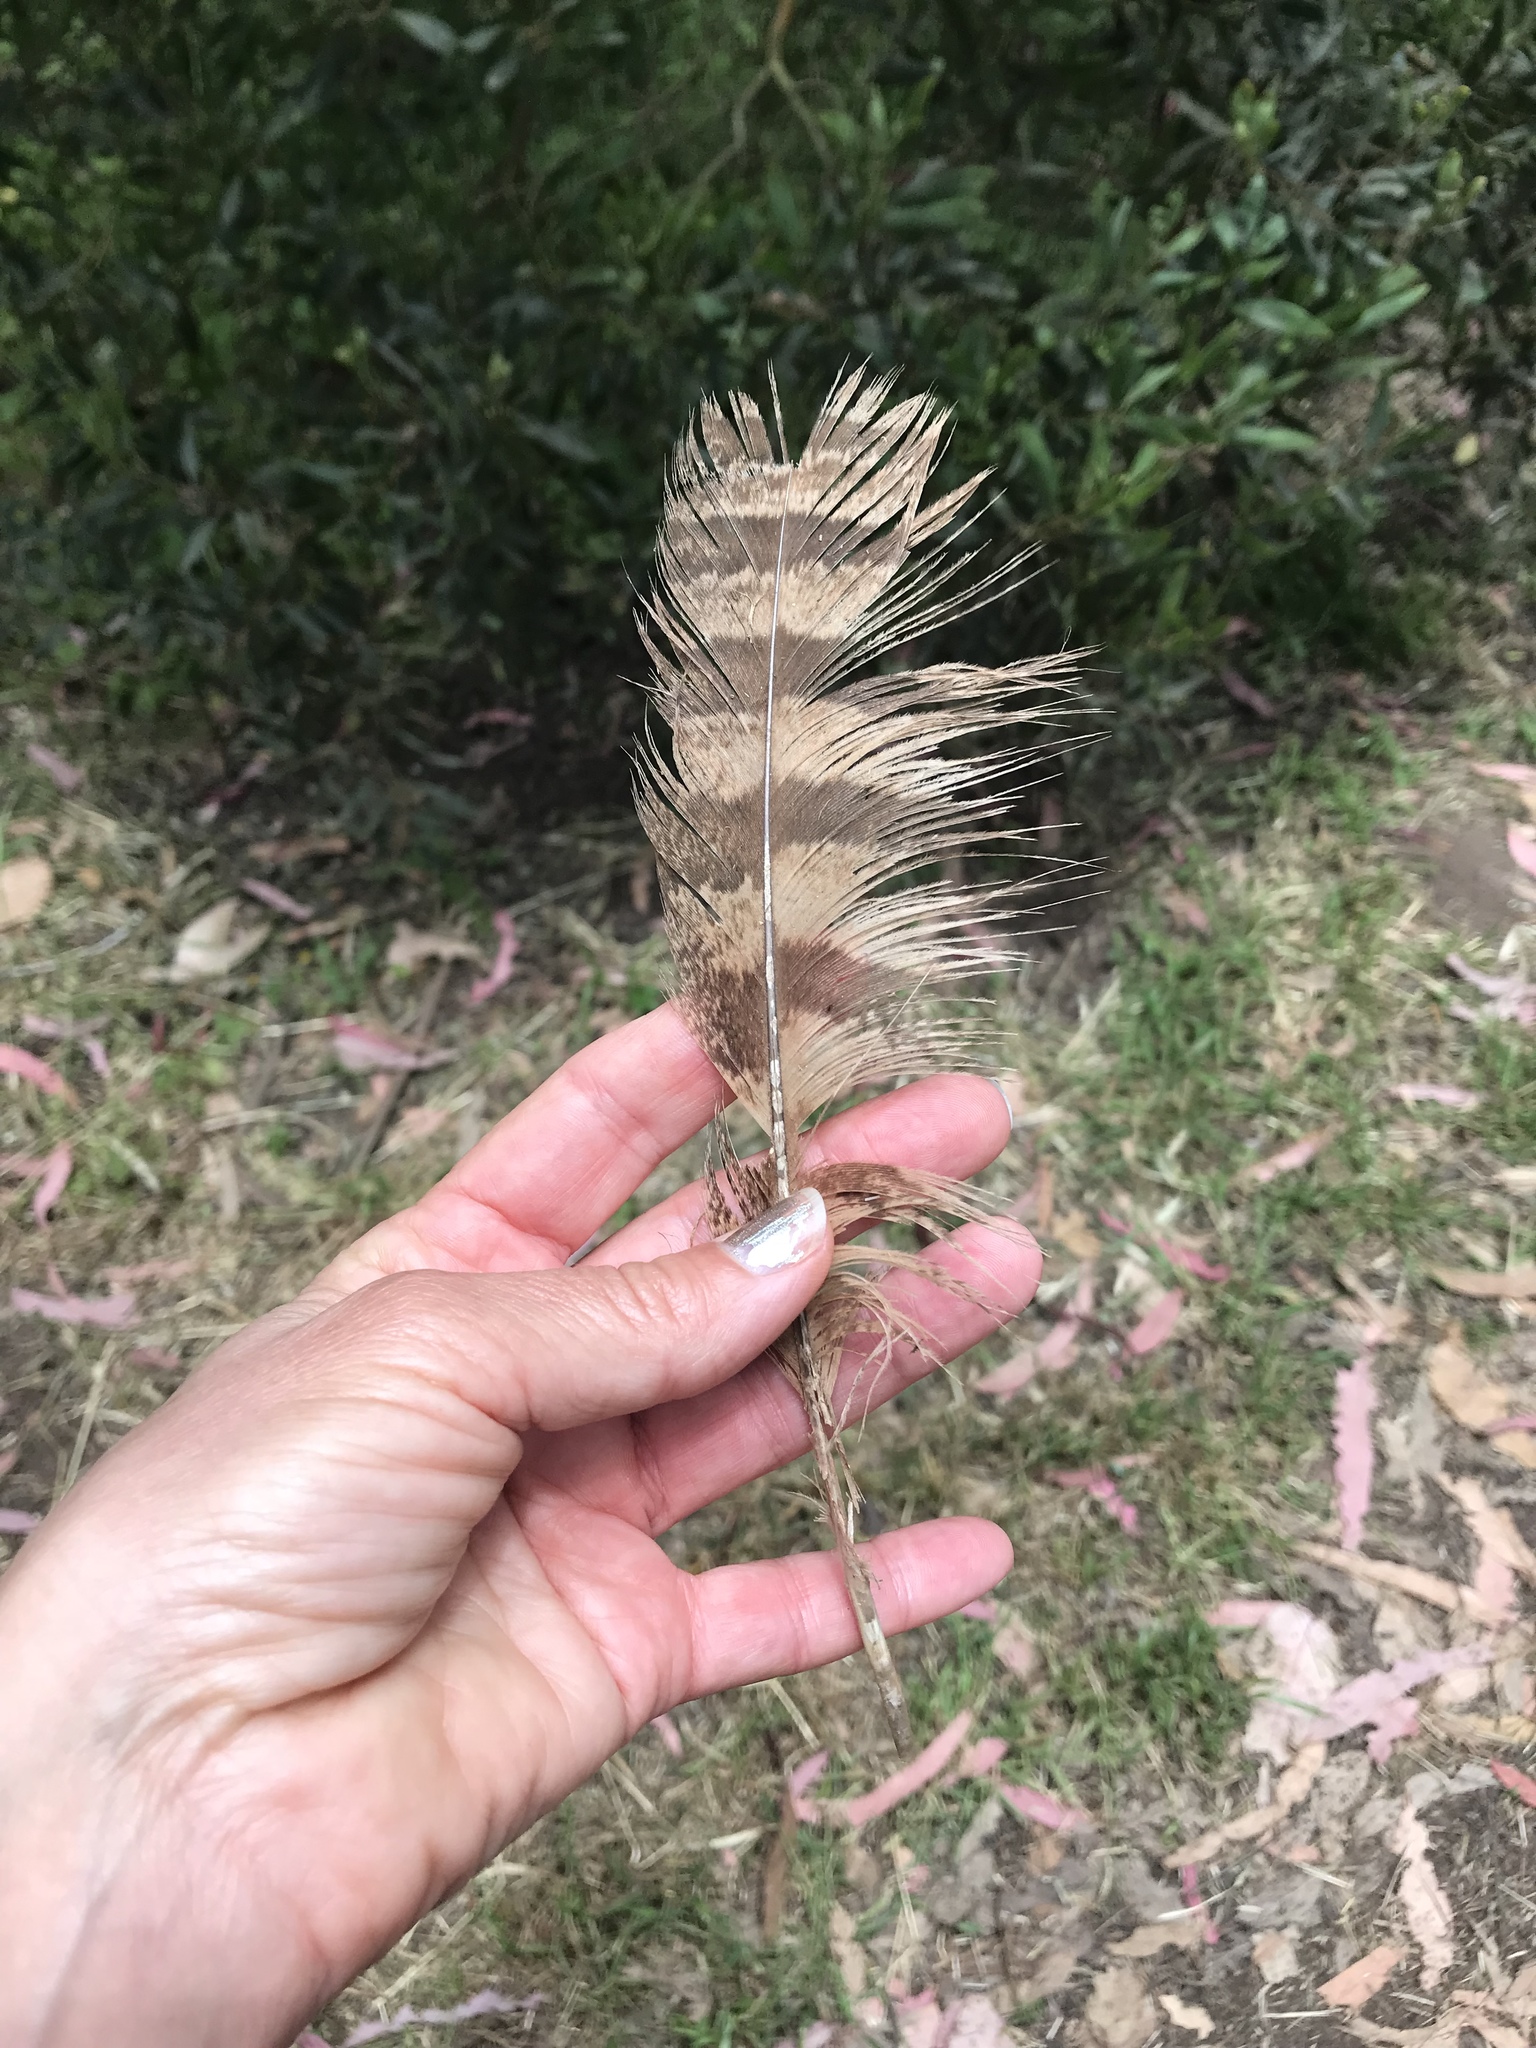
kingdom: Animalia
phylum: Chordata
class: Aves
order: Strigiformes
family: Strigidae
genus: Bubo
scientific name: Bubo virginianus
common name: Great horned owl
